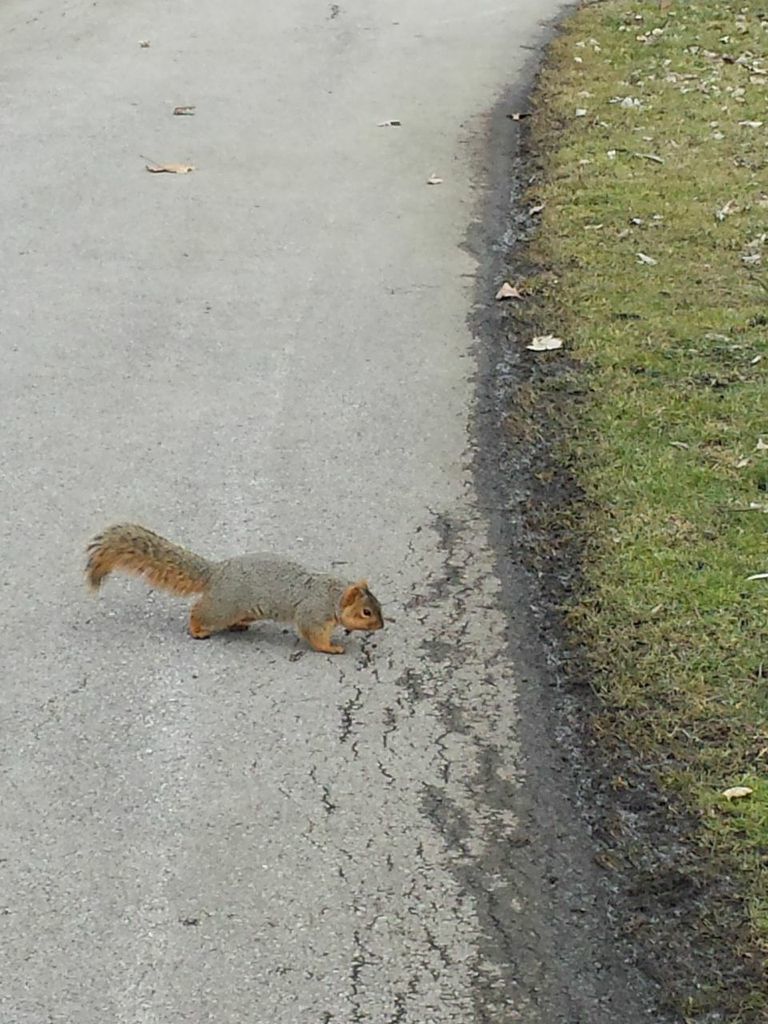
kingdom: Animalia
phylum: Chordata
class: Mammalia
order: Rodentia
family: Sciuridae
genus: Sciurus
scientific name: Sciurus niger
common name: Fox squirrel
